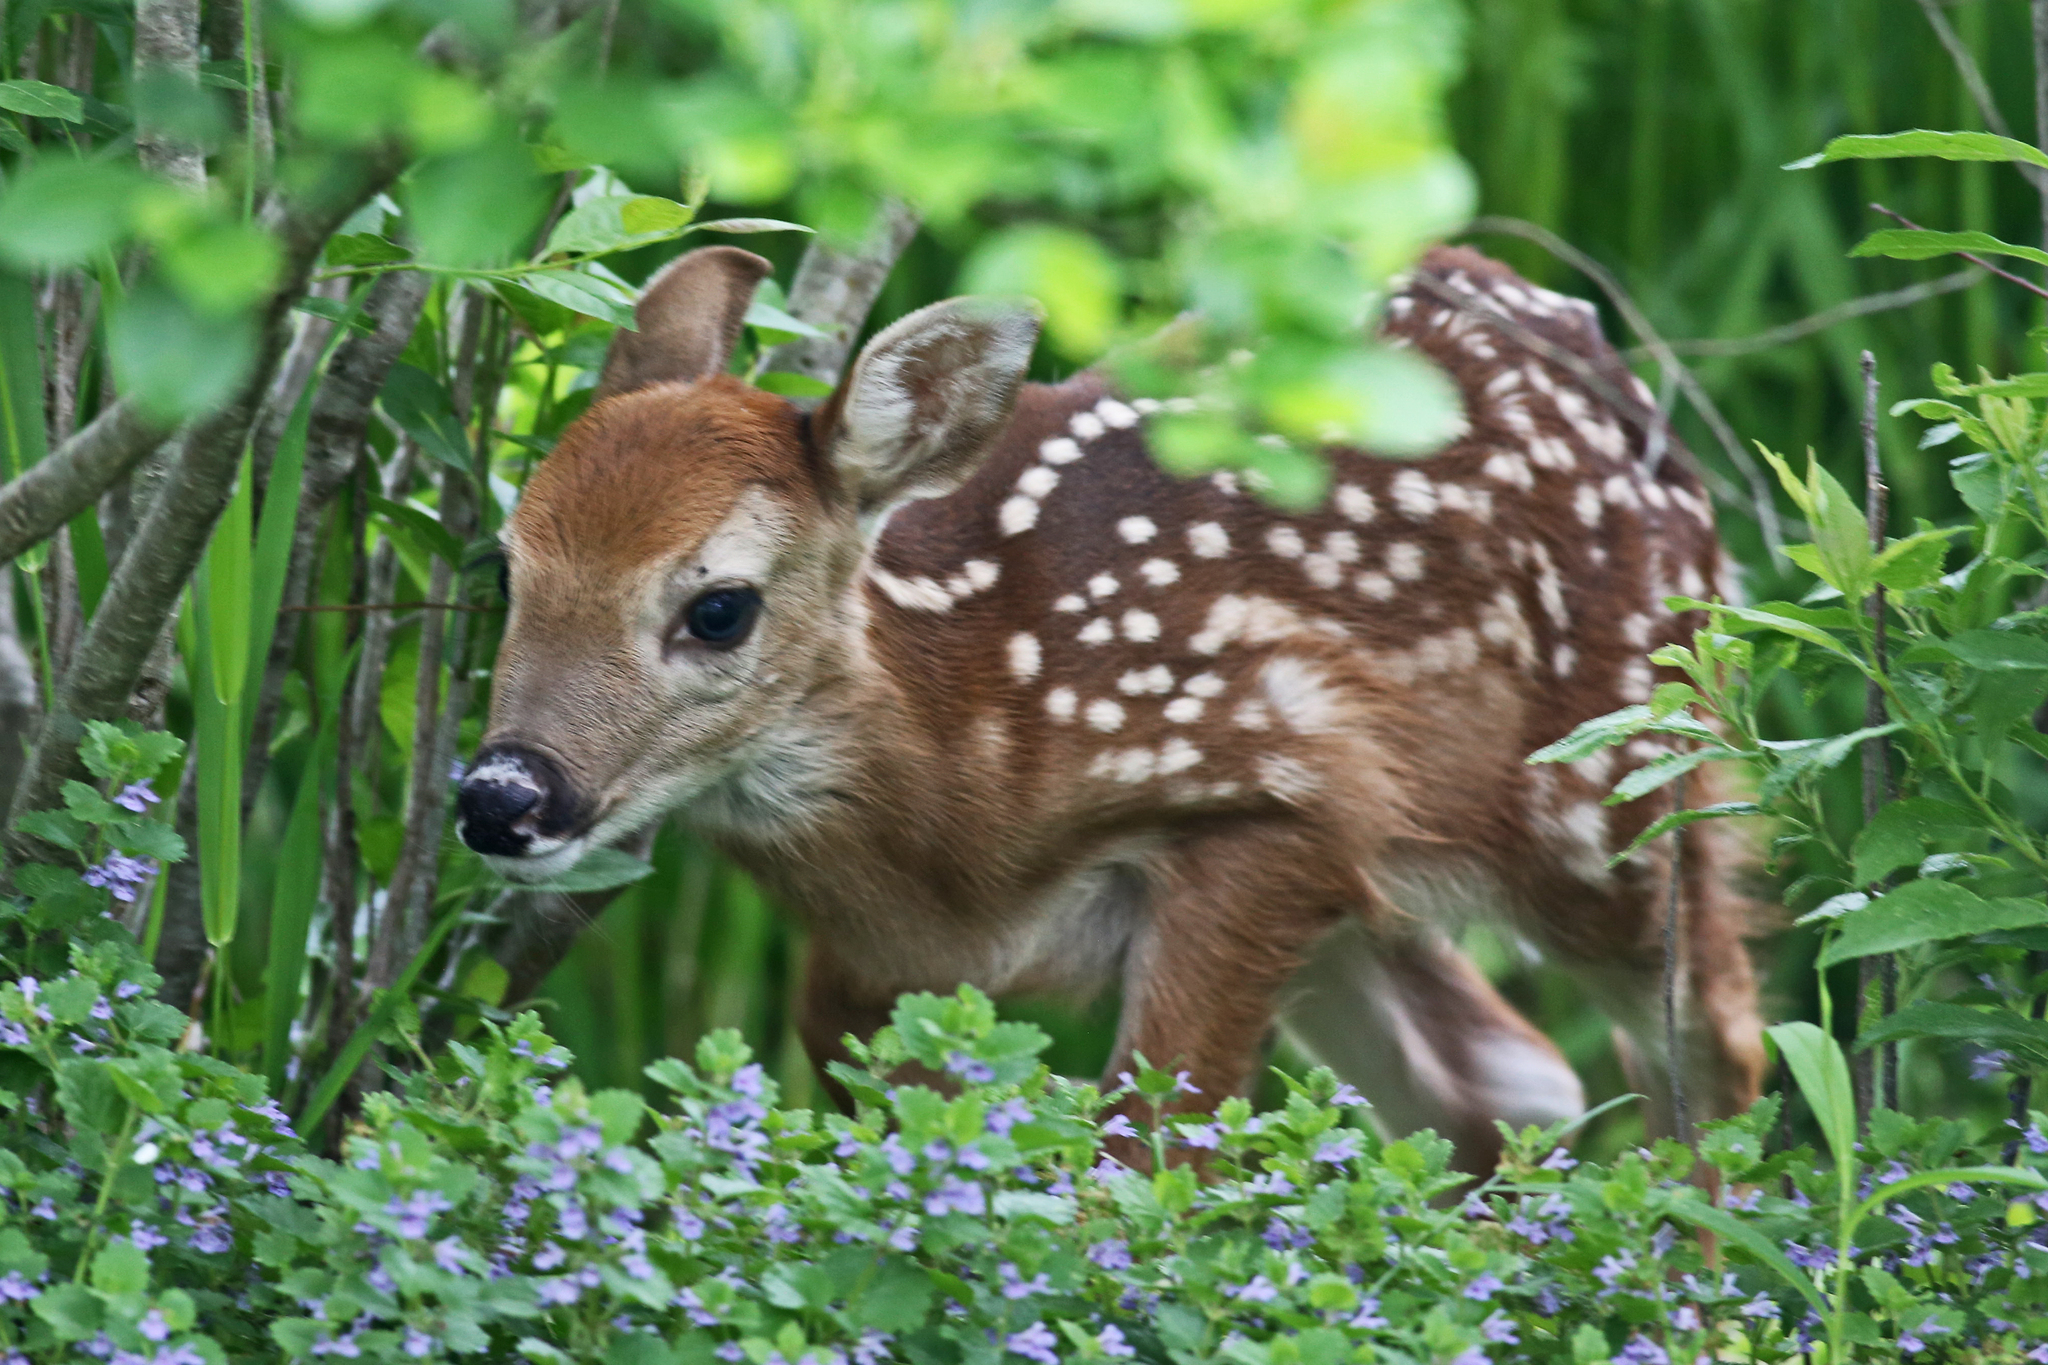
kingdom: Animalia
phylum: Chordata
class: Mammalia
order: Artiodactyla
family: Cervidae
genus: Odocoileus
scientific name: Odocoileus virginianus
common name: White-tailed deer
